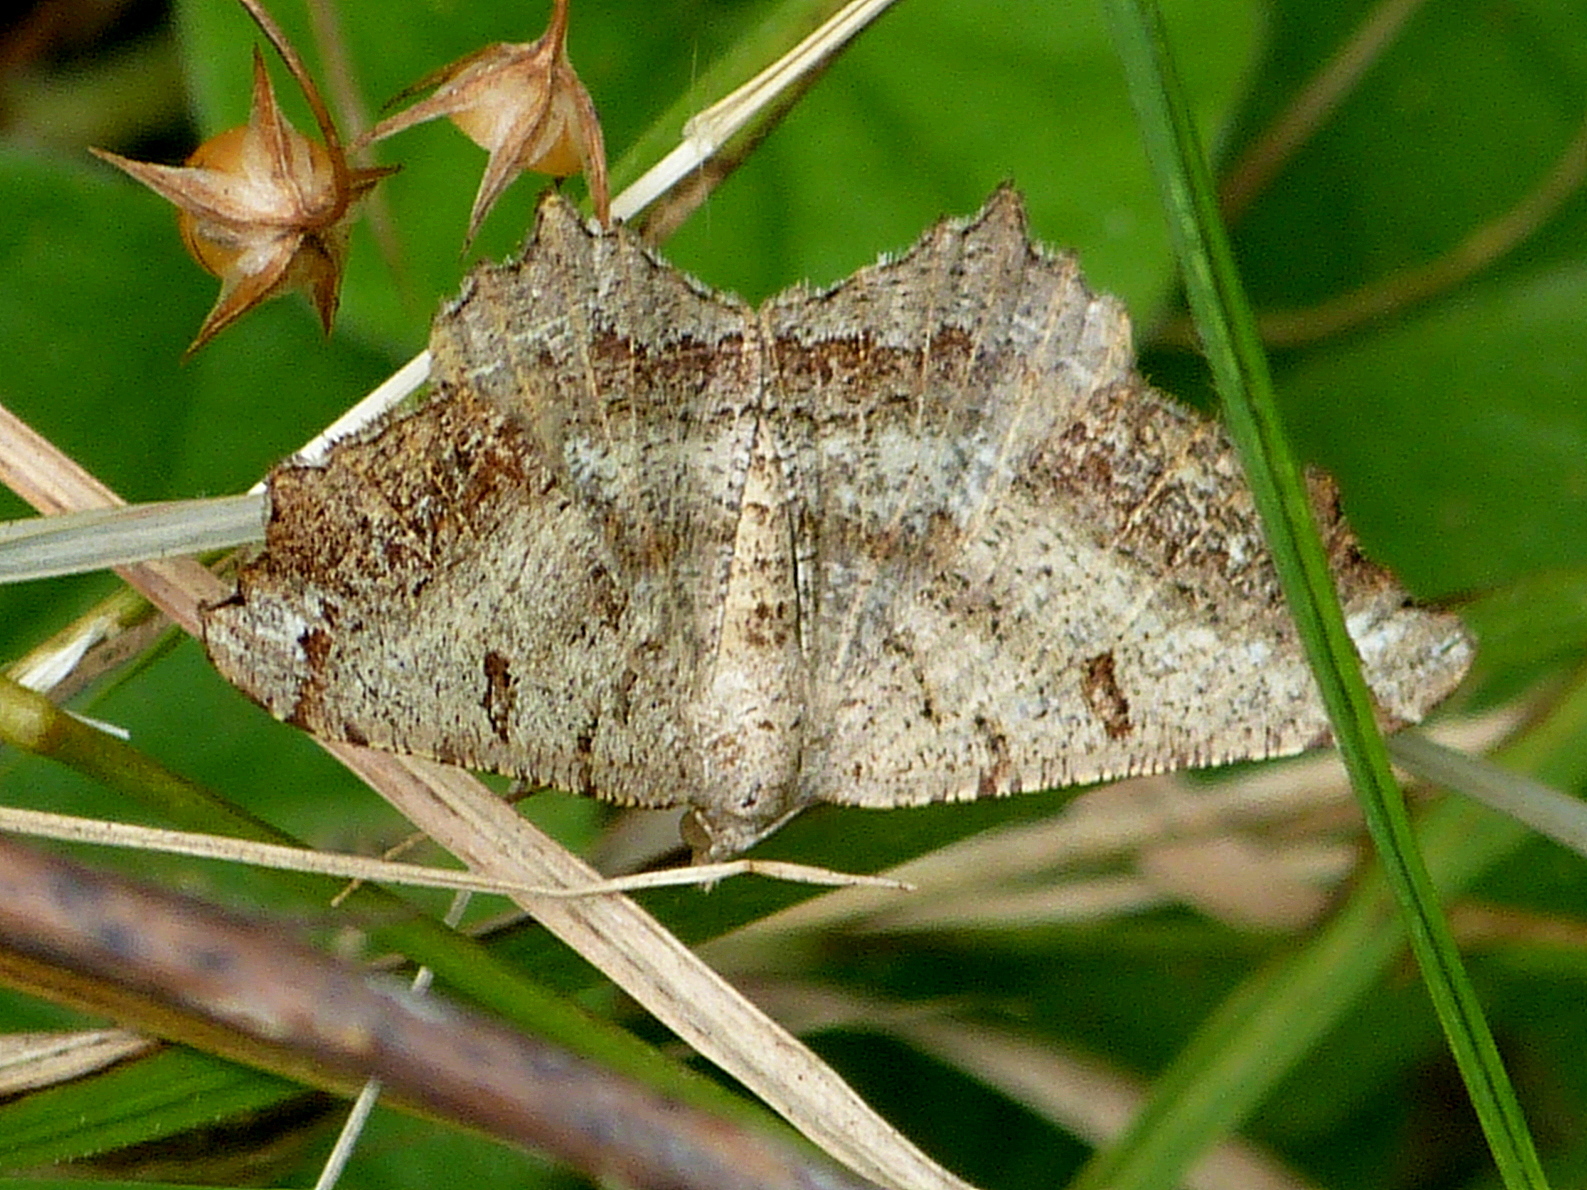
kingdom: Animalia
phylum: Arthropoda
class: Insecta
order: Lepidoptera
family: Geometridae
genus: Dissomorphia
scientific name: Dissomorphia australiaria
